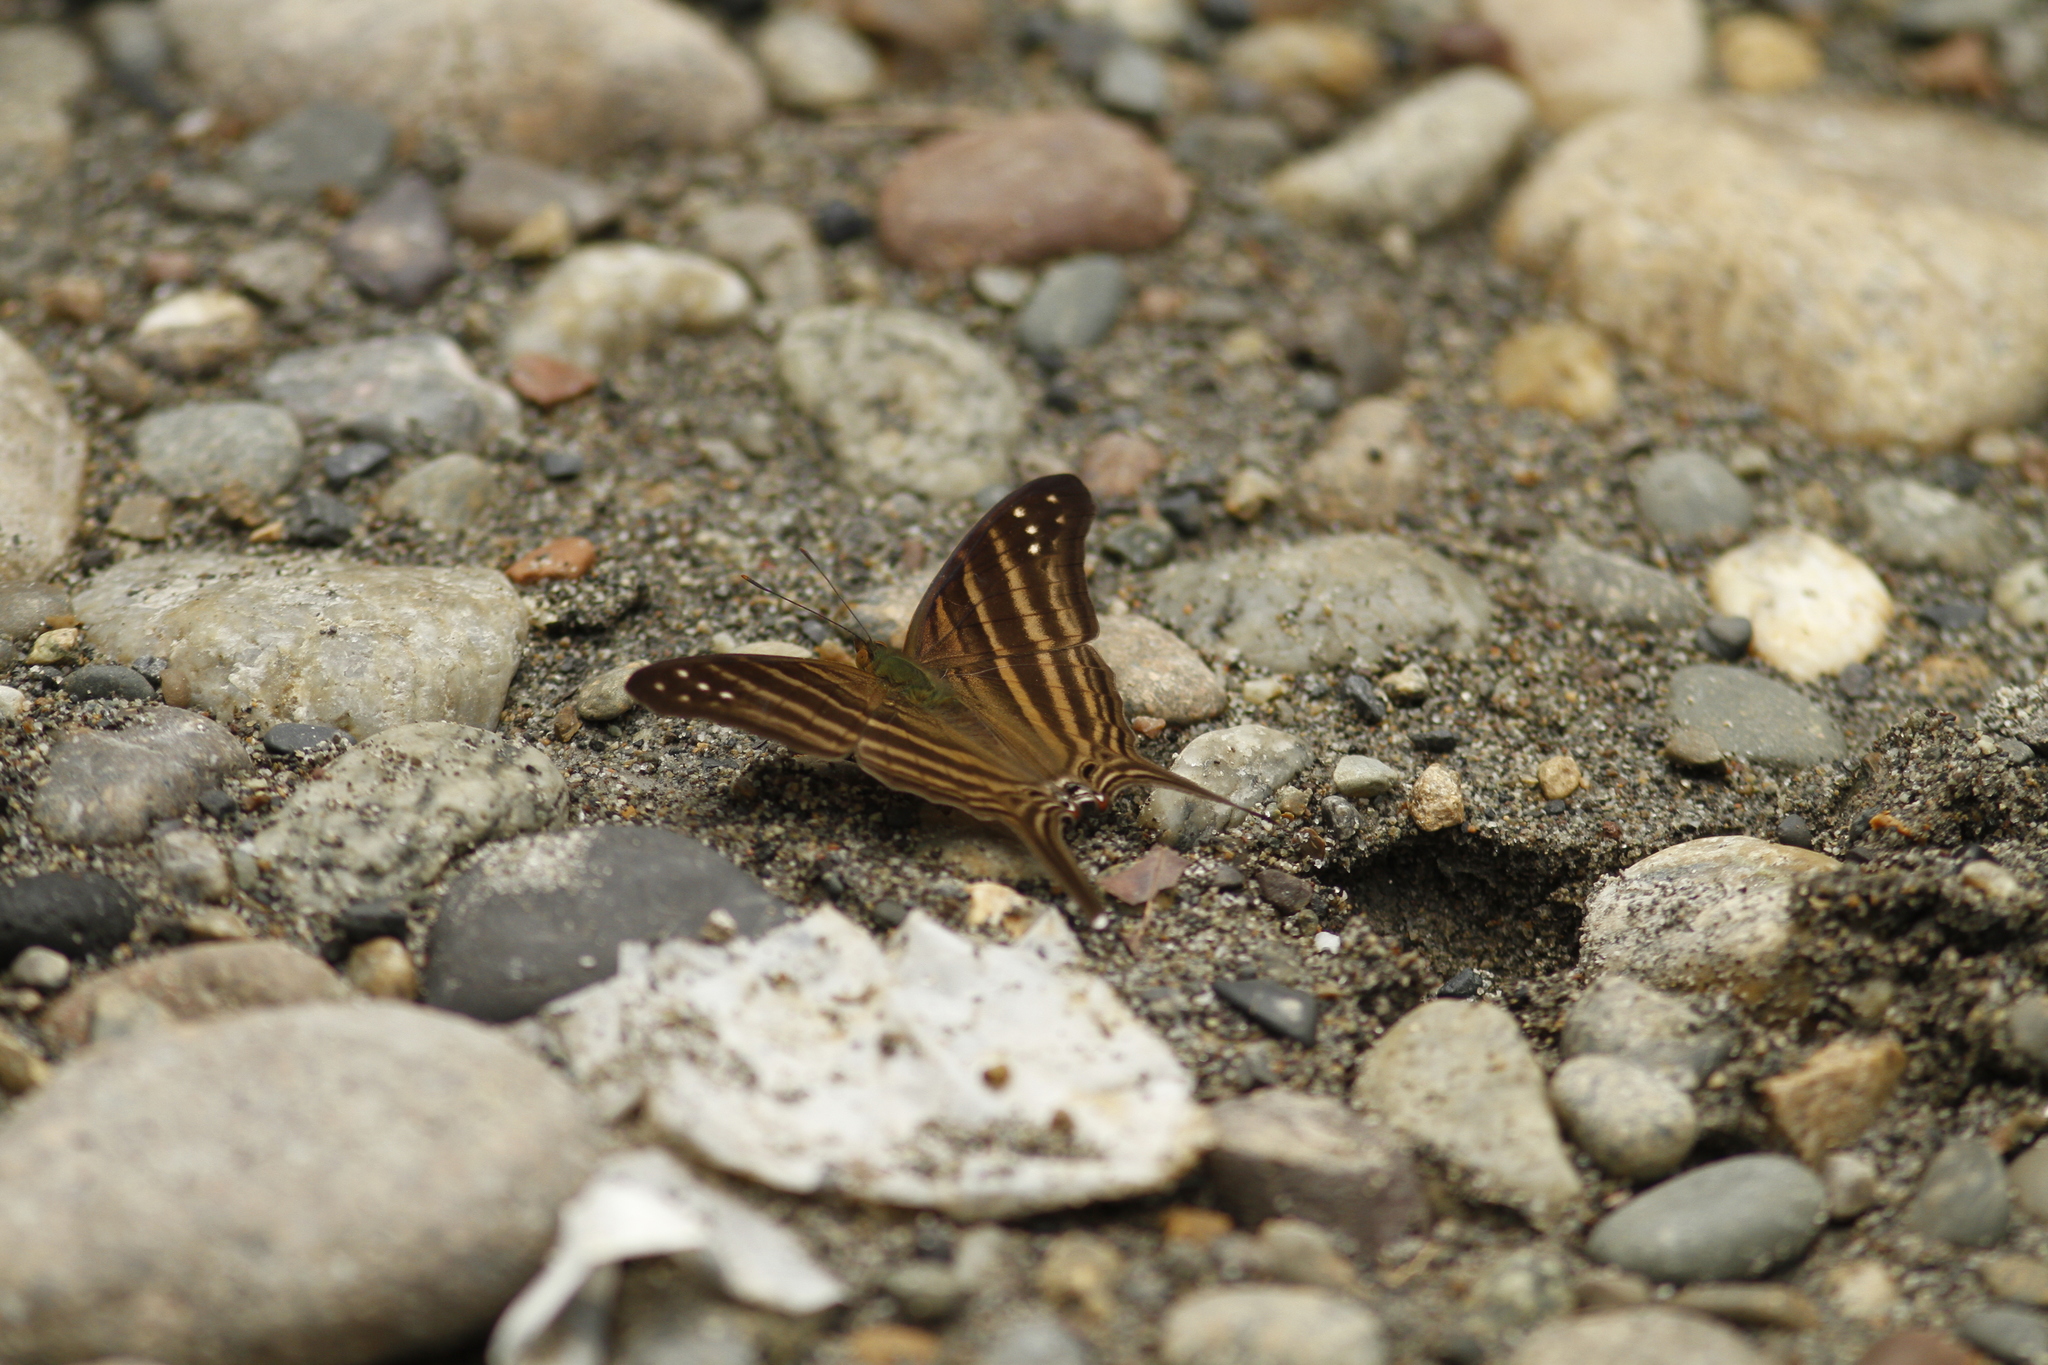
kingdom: Animalia
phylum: Arthropoda
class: Insecta
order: Lepidoptera
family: Nymphalidae
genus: Marpesia
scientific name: Marpesia chiron
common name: Many-banded daggerwing
